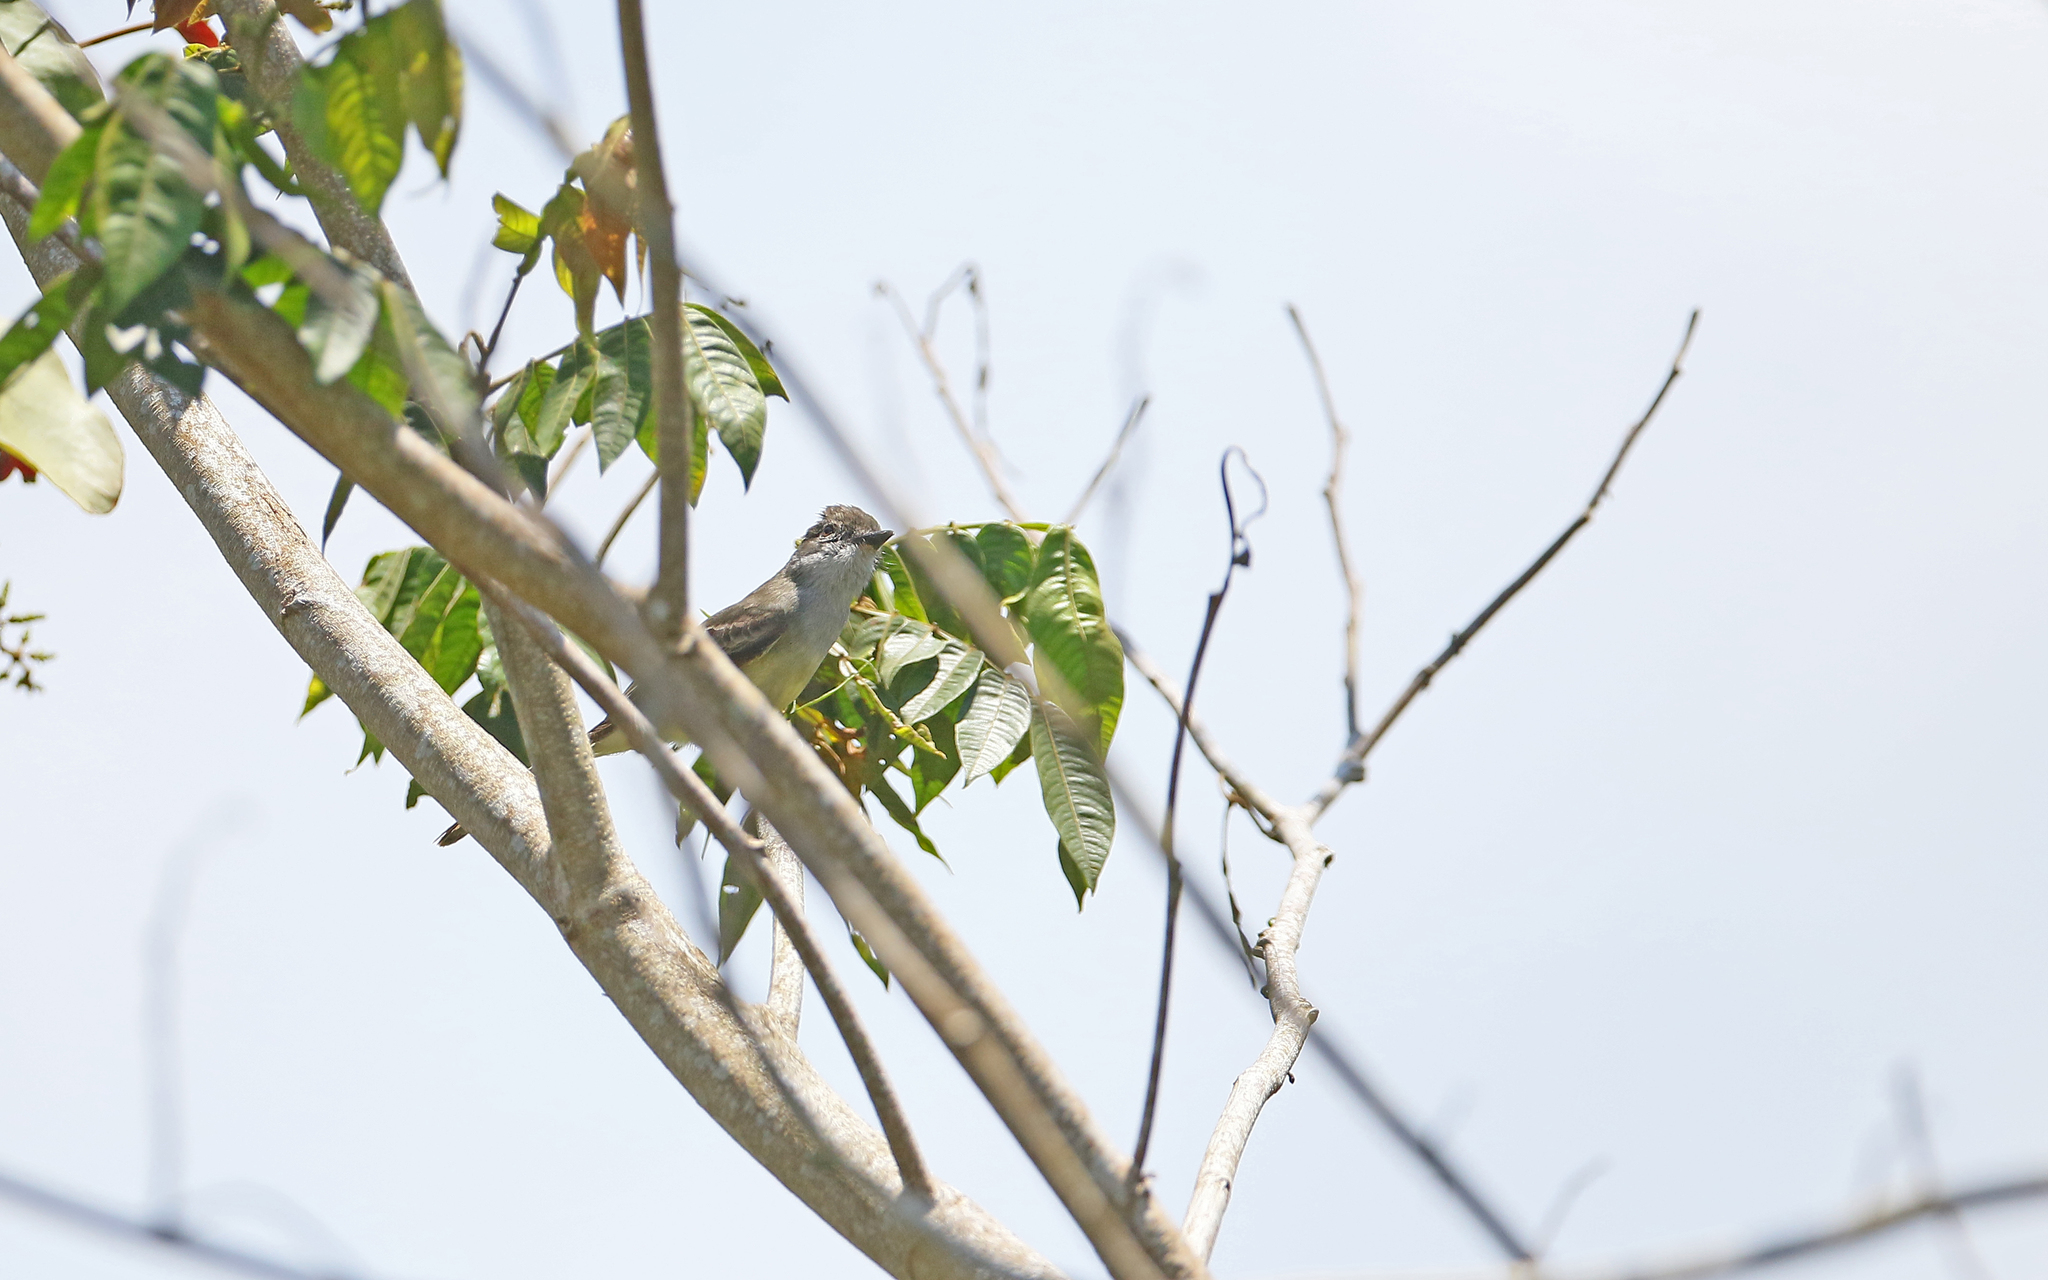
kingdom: Animalia
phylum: Chordata
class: Aves
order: Passeriformes
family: Tyrannidae
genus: Myiarchus
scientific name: Myiarchus ferox
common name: Short-crested flycatcher
